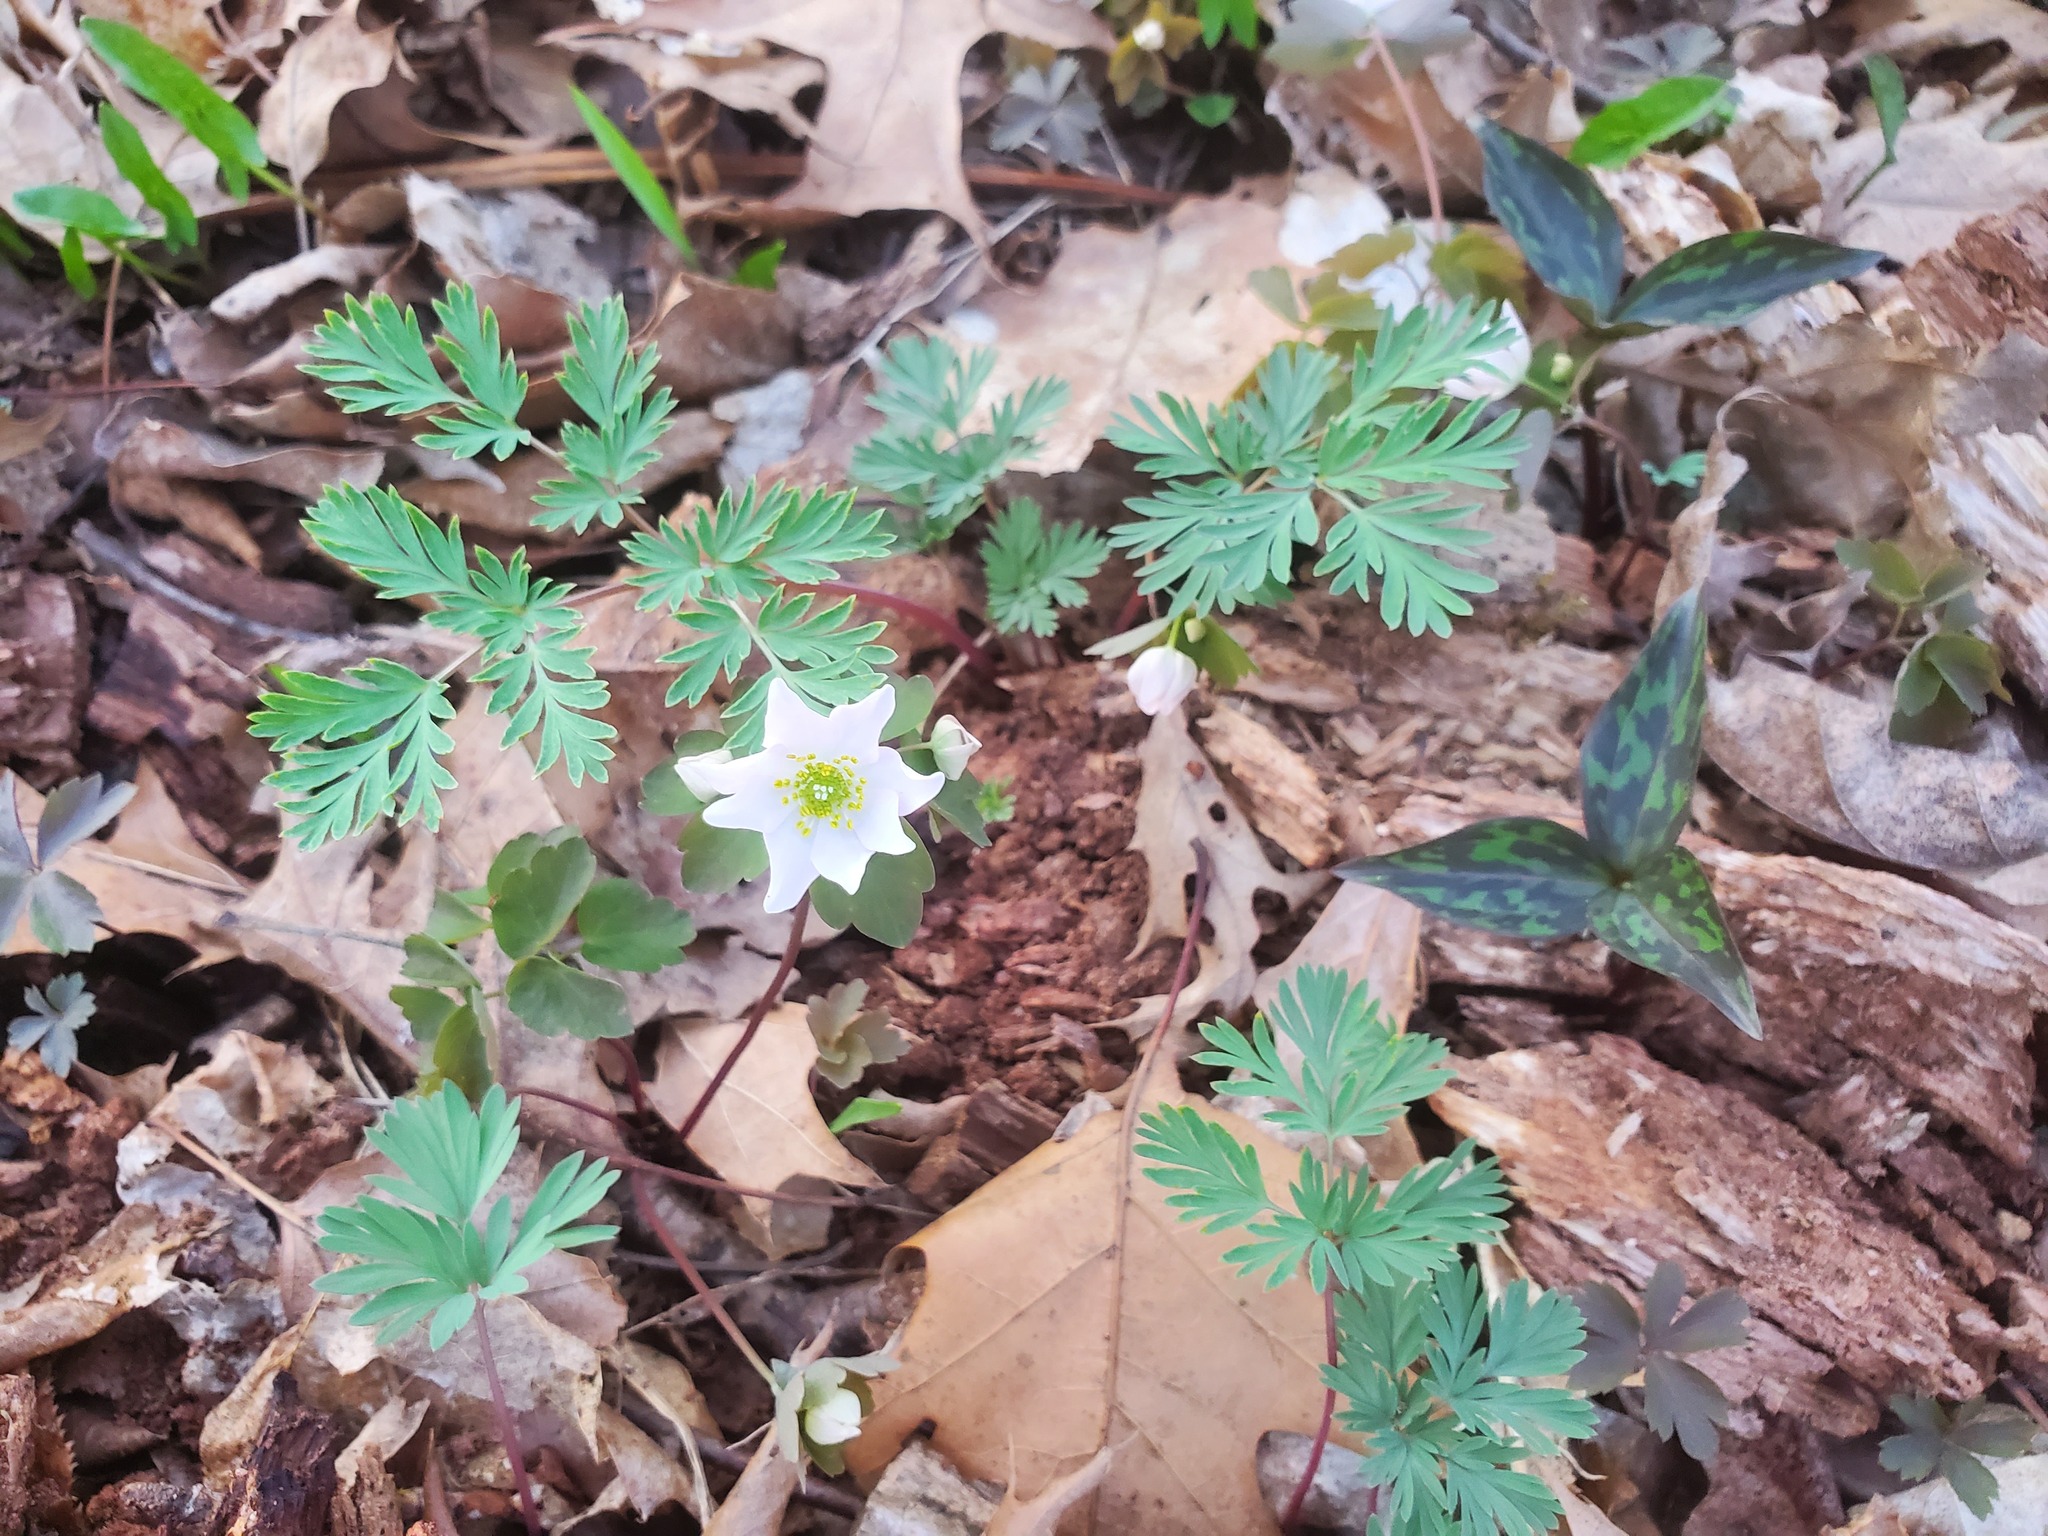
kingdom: Plantae
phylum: Tracheophyta
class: Liliopsida
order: Liliales
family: Melanthiaceae
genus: Trillium
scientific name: Trillium recurvatum
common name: Bloody butcher
